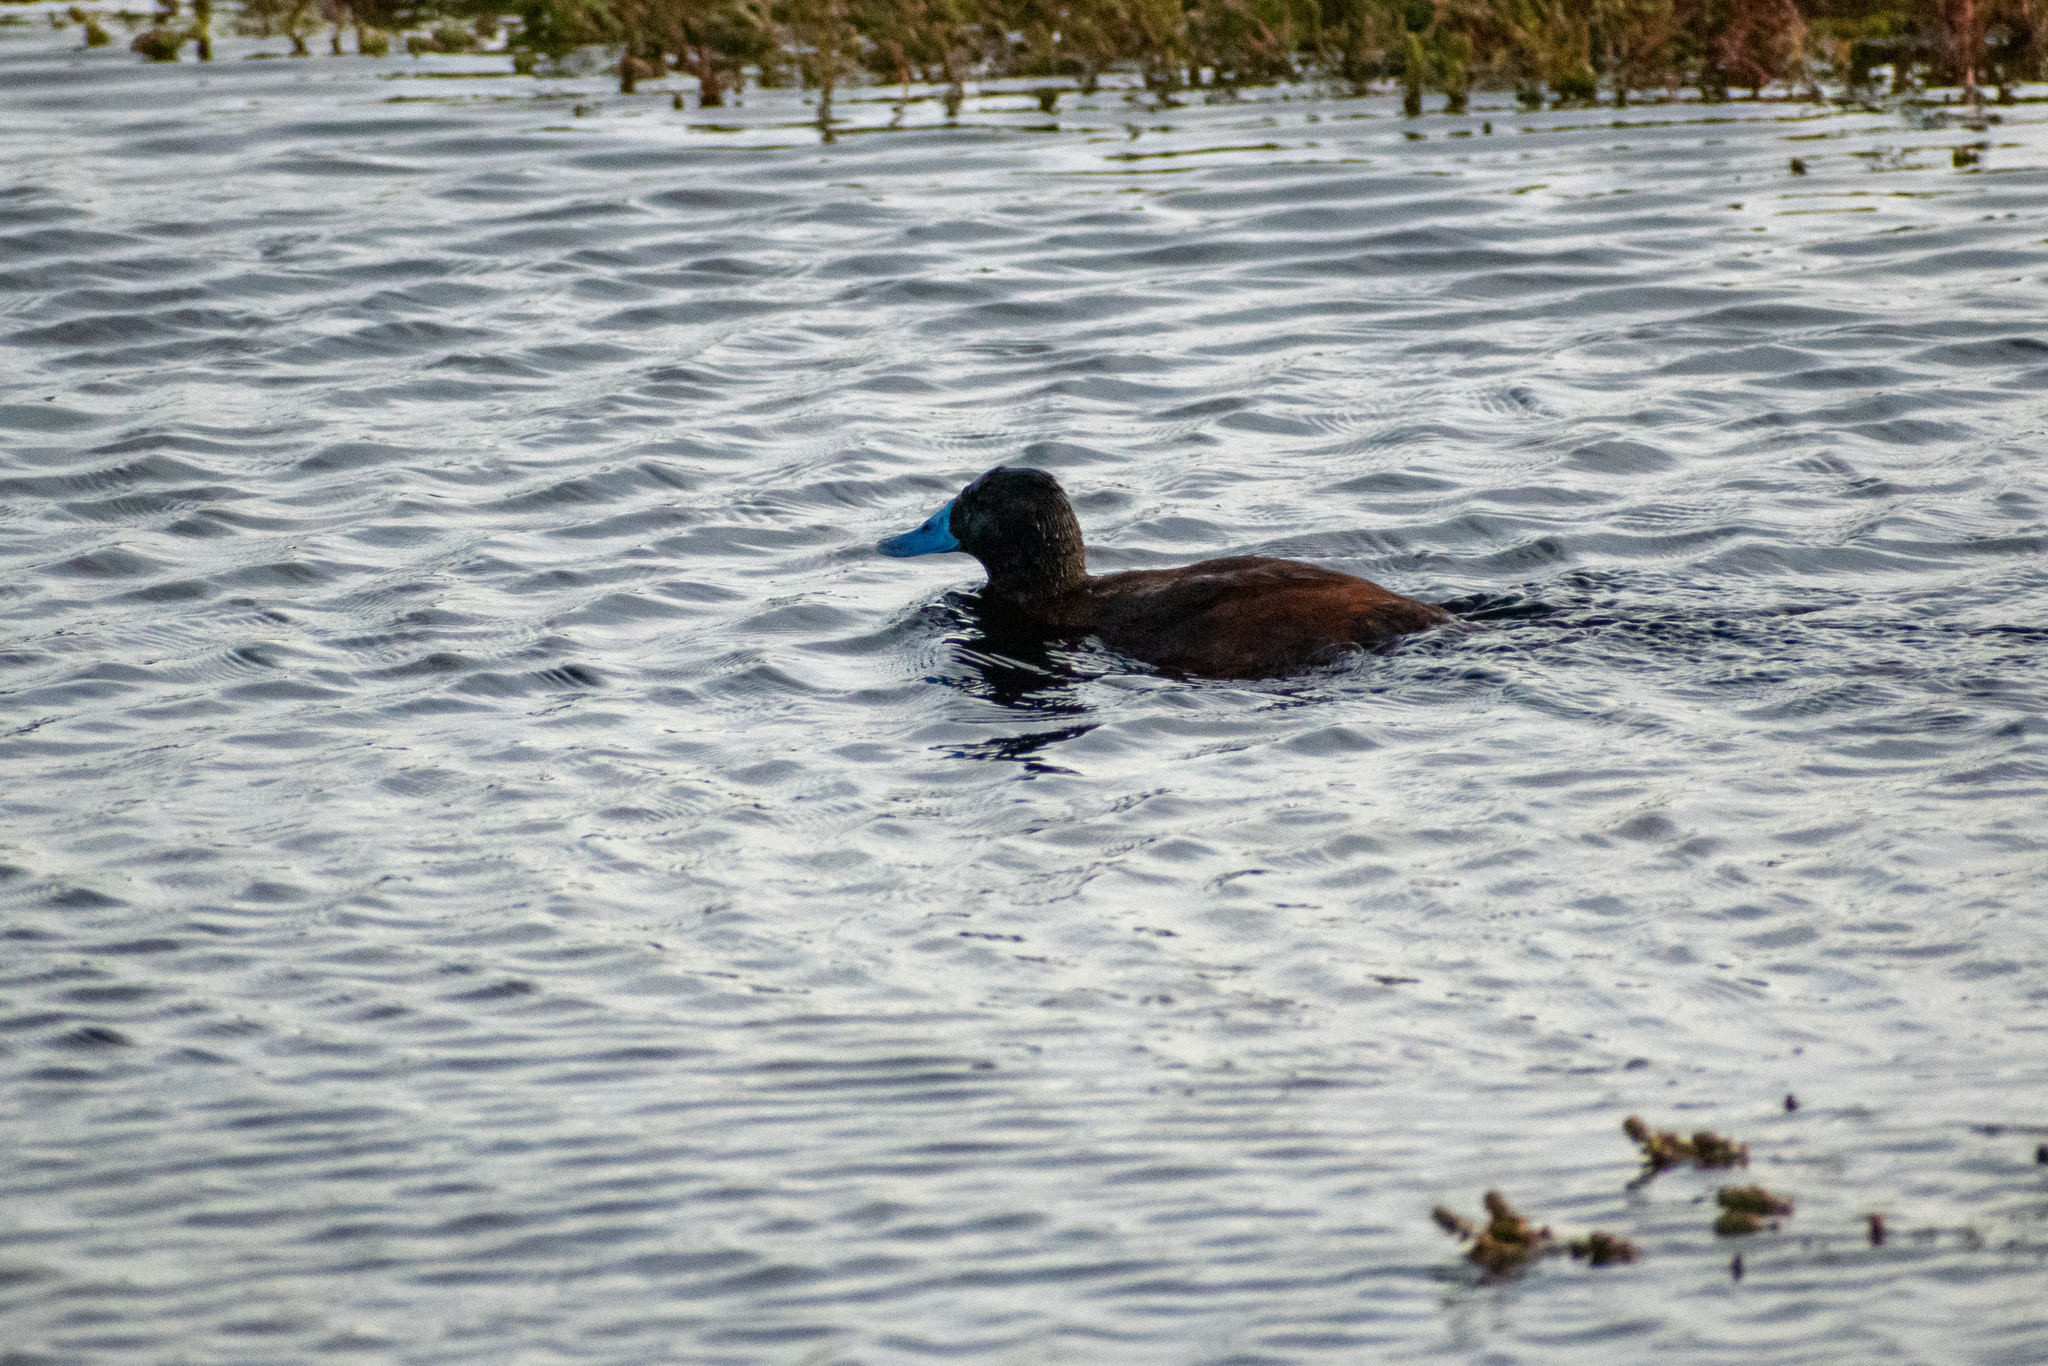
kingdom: Animalia
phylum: Chordata
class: Aves
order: Anseriformes
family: Anatidae
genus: Oxyura
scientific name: Oxyura vittata
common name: Lake duck
